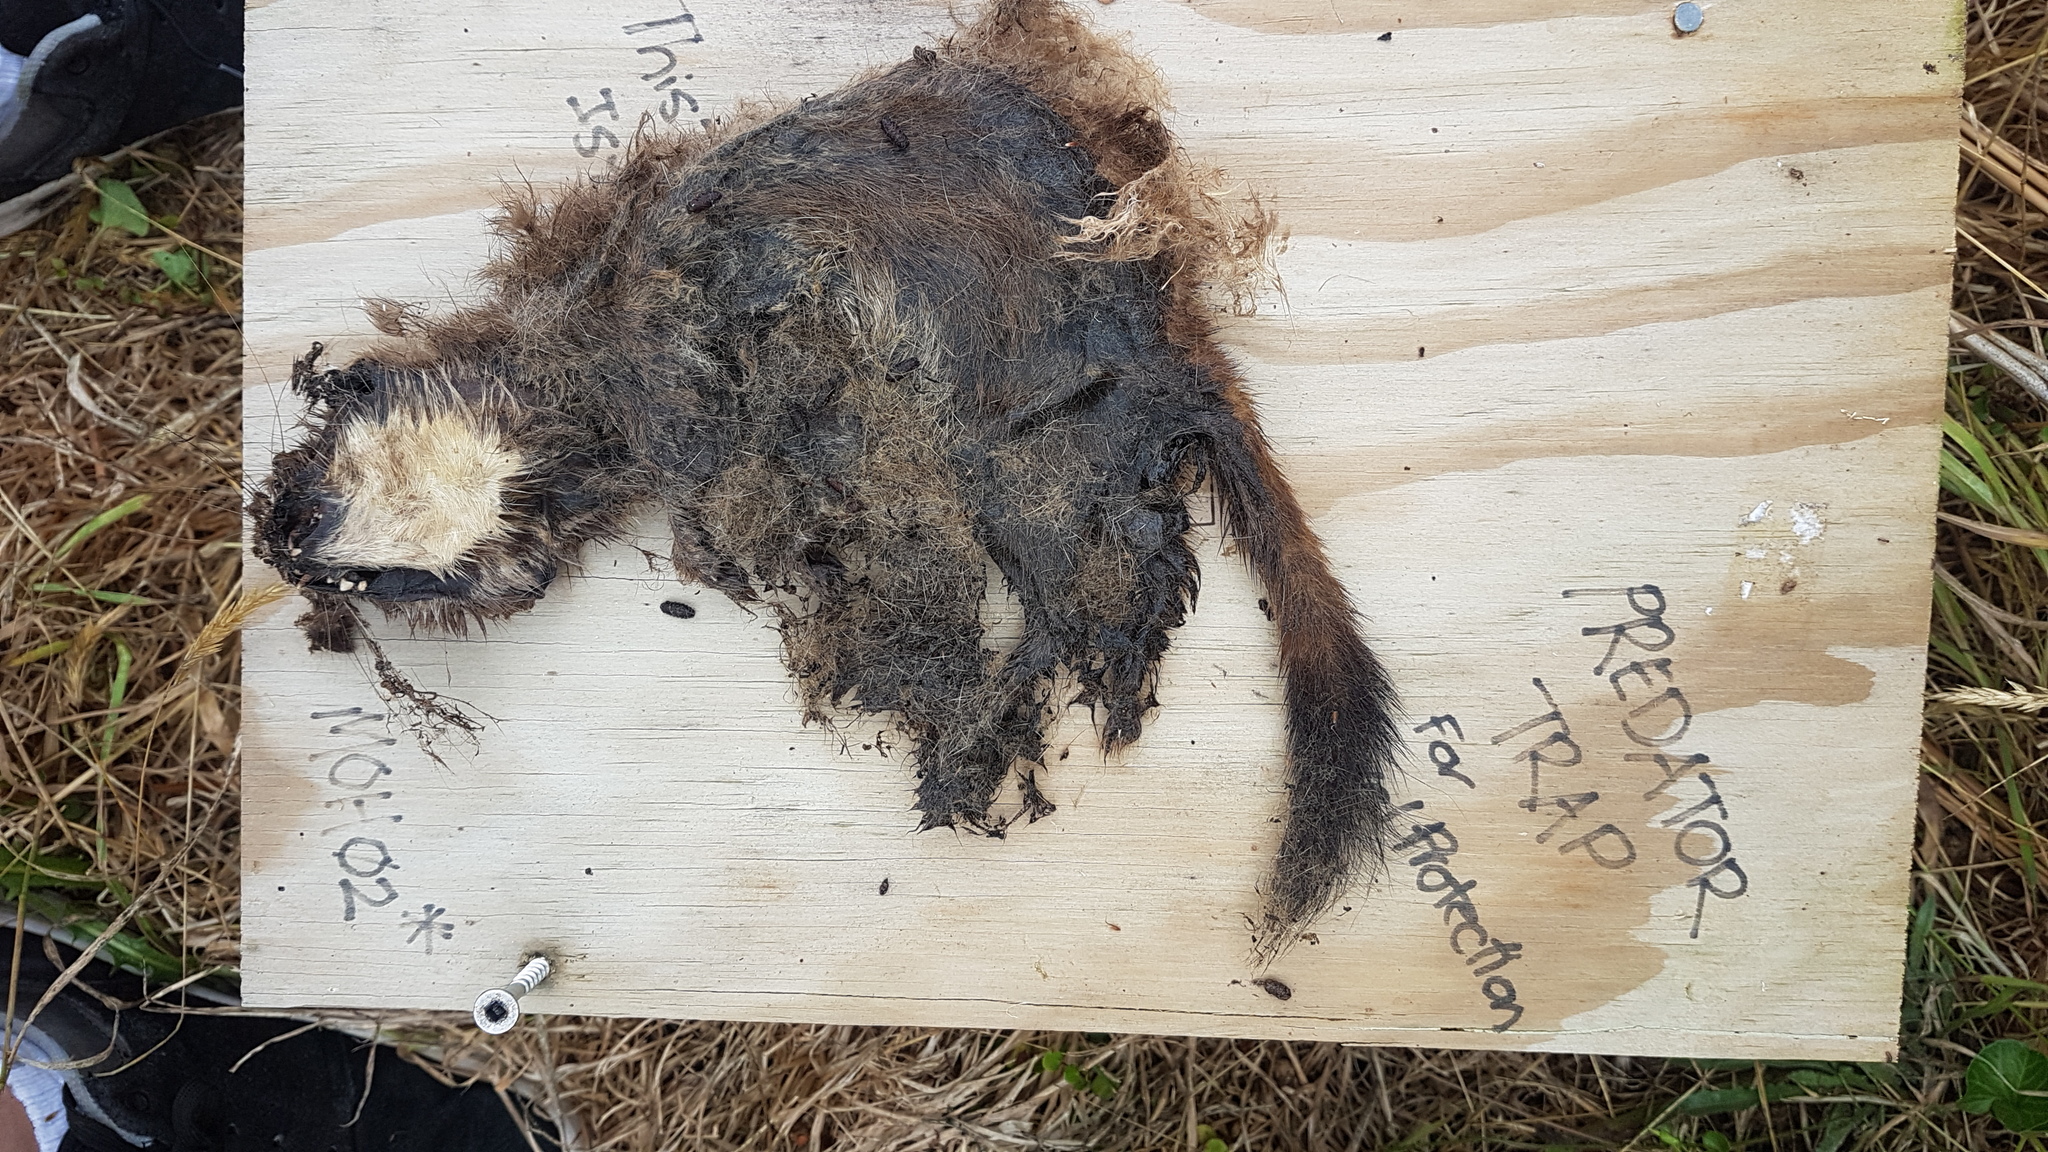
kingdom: Animalia
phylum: Chordata
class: Mammalia
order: Carnivora
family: Mustelidae
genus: Mustela
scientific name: Mustela erminea
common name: Stoat
